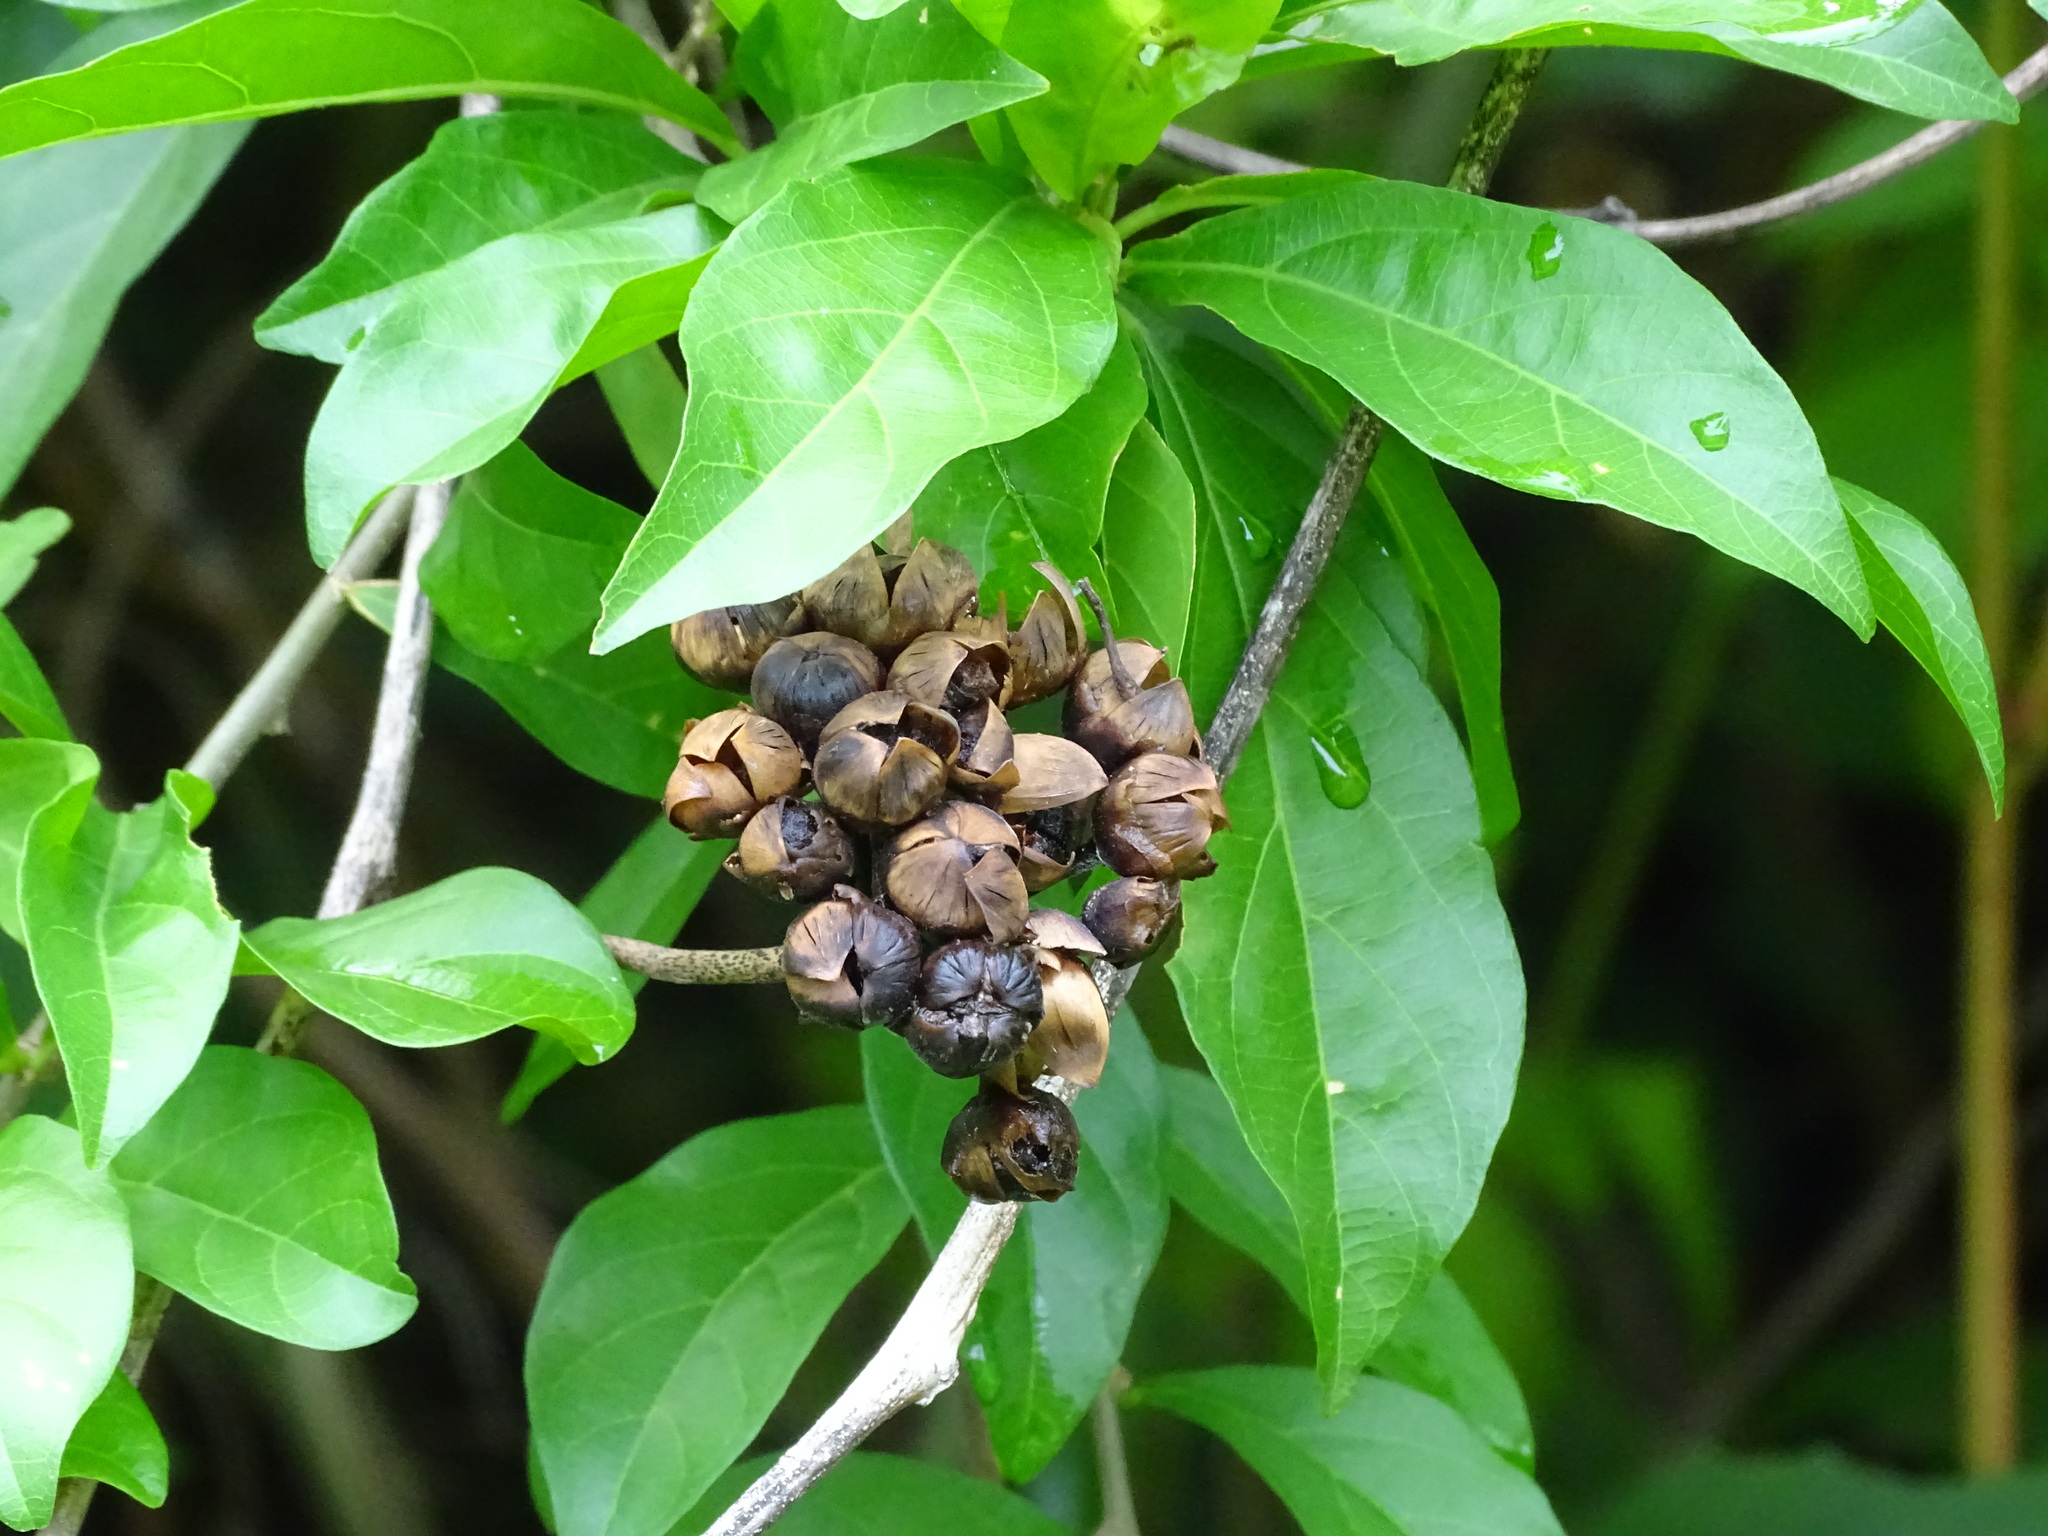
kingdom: Plantae
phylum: Tracheophyta
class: Magnoliopsida
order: Solanales
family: Convolvulaceae
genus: Camonea
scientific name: Camonea umbellata
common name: Hogvine
